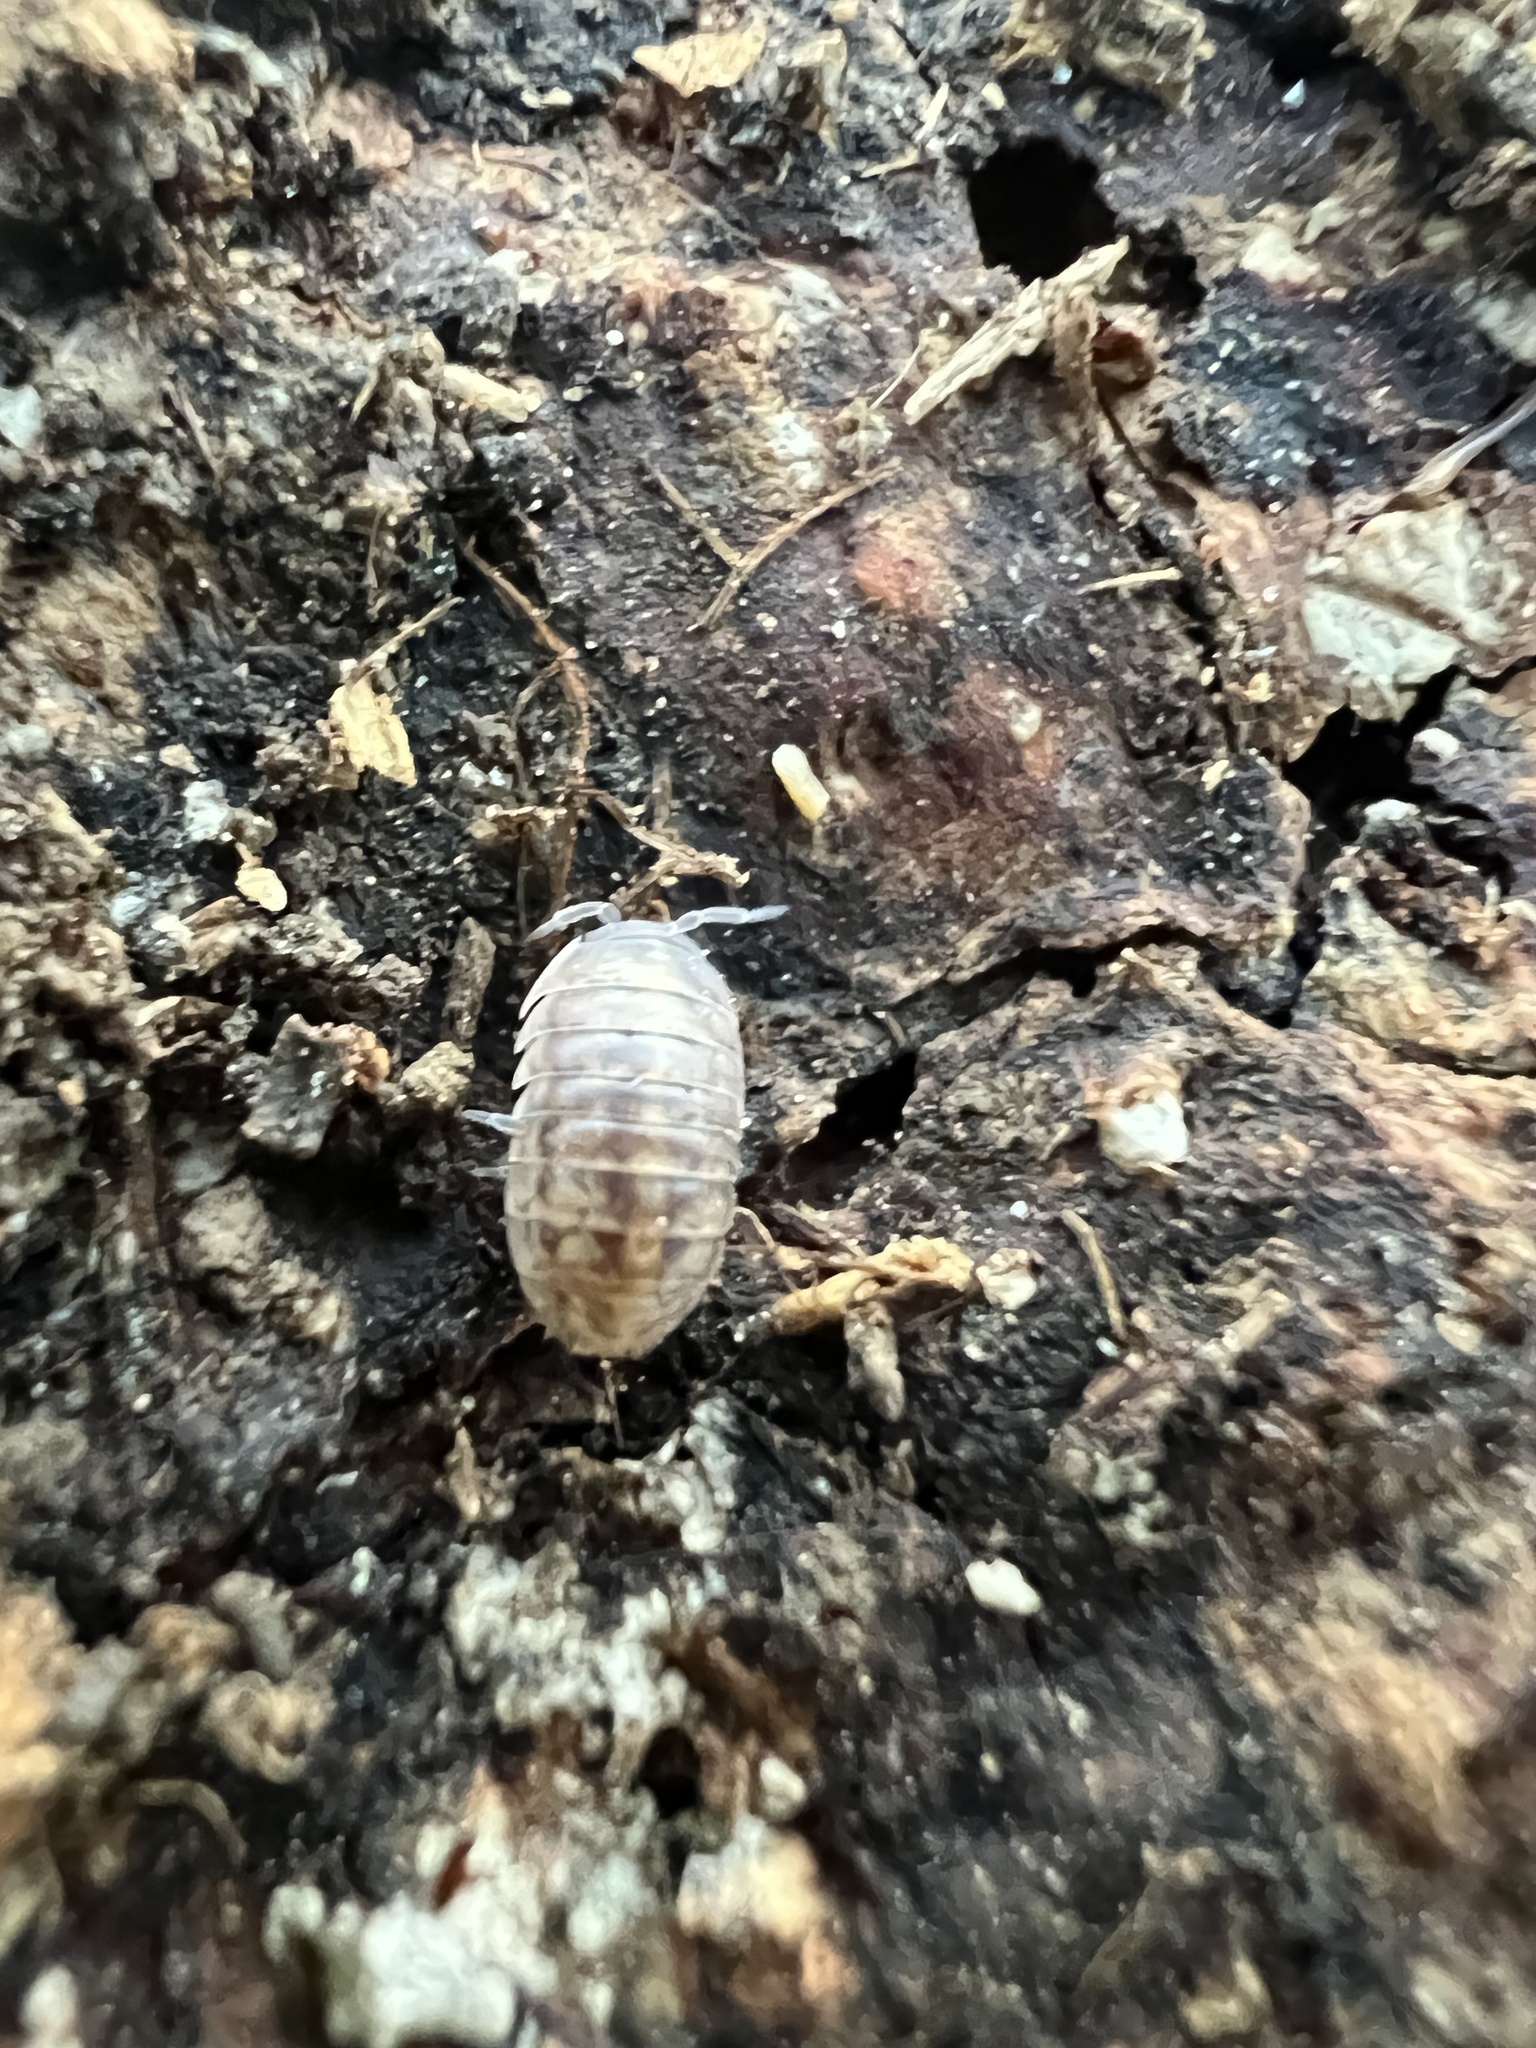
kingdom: Animalia
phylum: Arthropoda
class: Malacostraca
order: Isopoda
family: Armadillidiidae
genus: Armadillidium
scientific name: Armadillidium vulgare
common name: Common pill woodlouse
